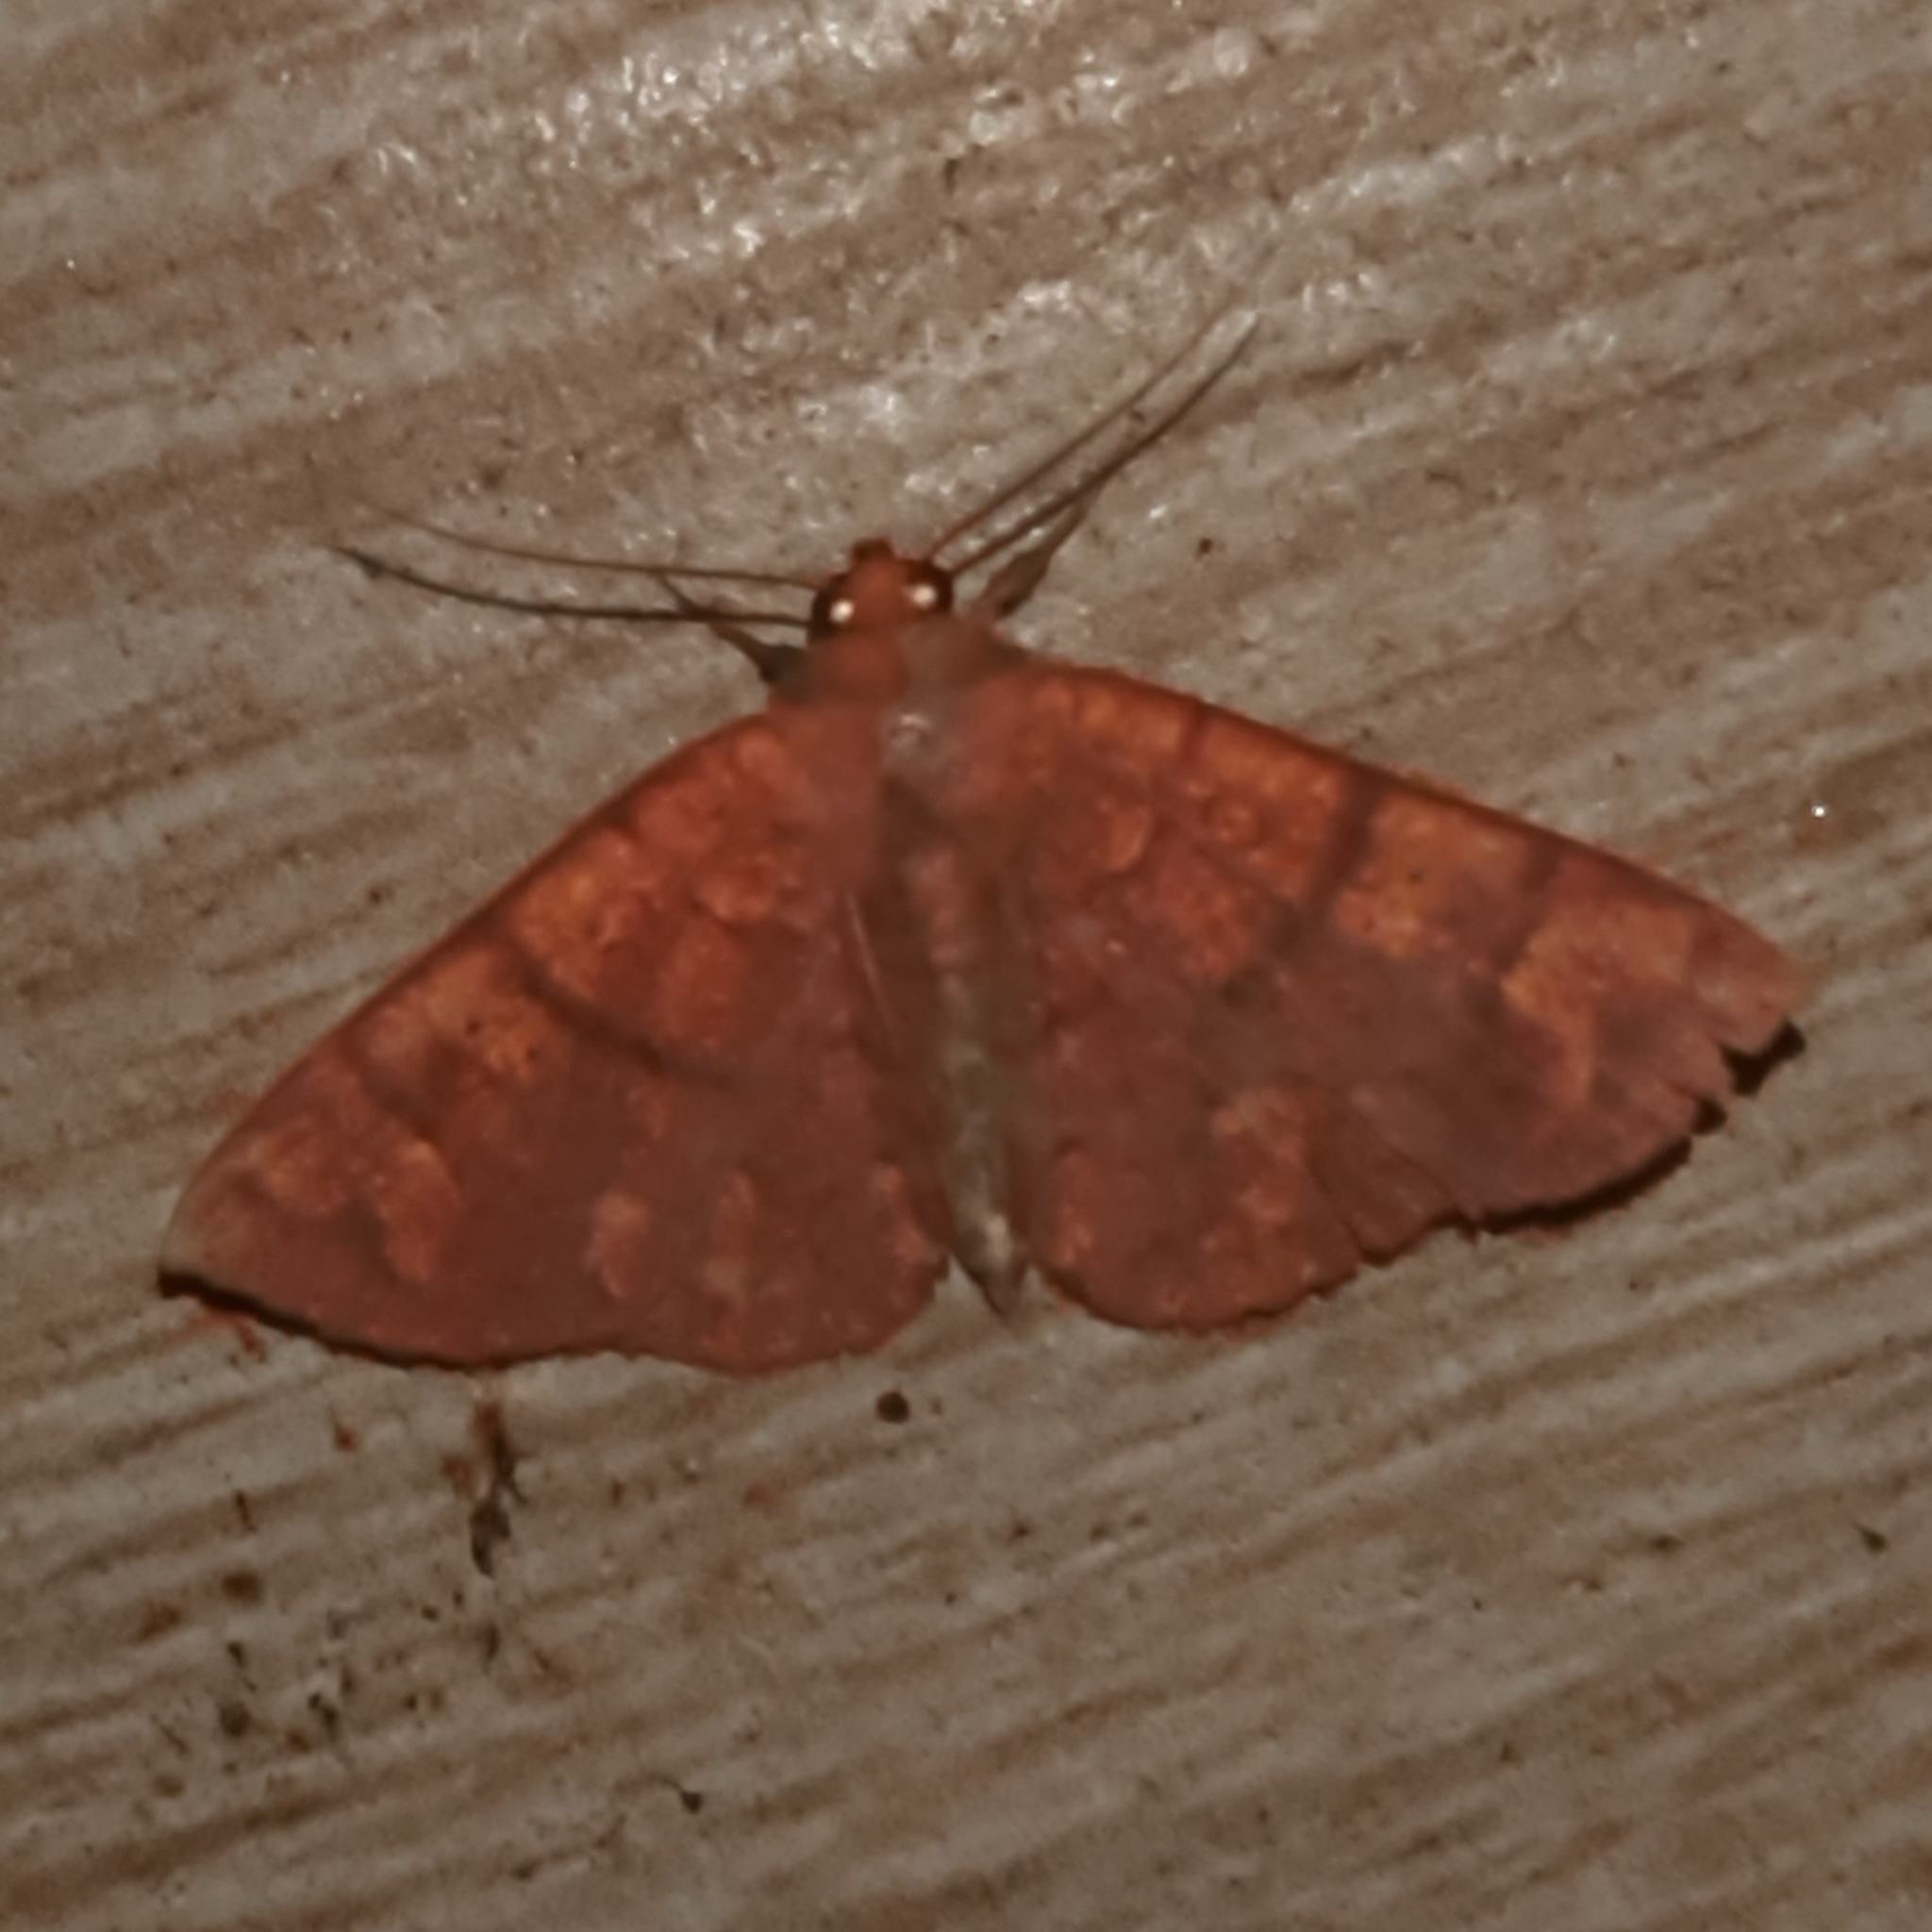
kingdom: Animalia
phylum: Arthropoda
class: Insecta
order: Lepidoptera
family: Erebidae
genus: Antiblemma
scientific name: Antiblemma agnita
